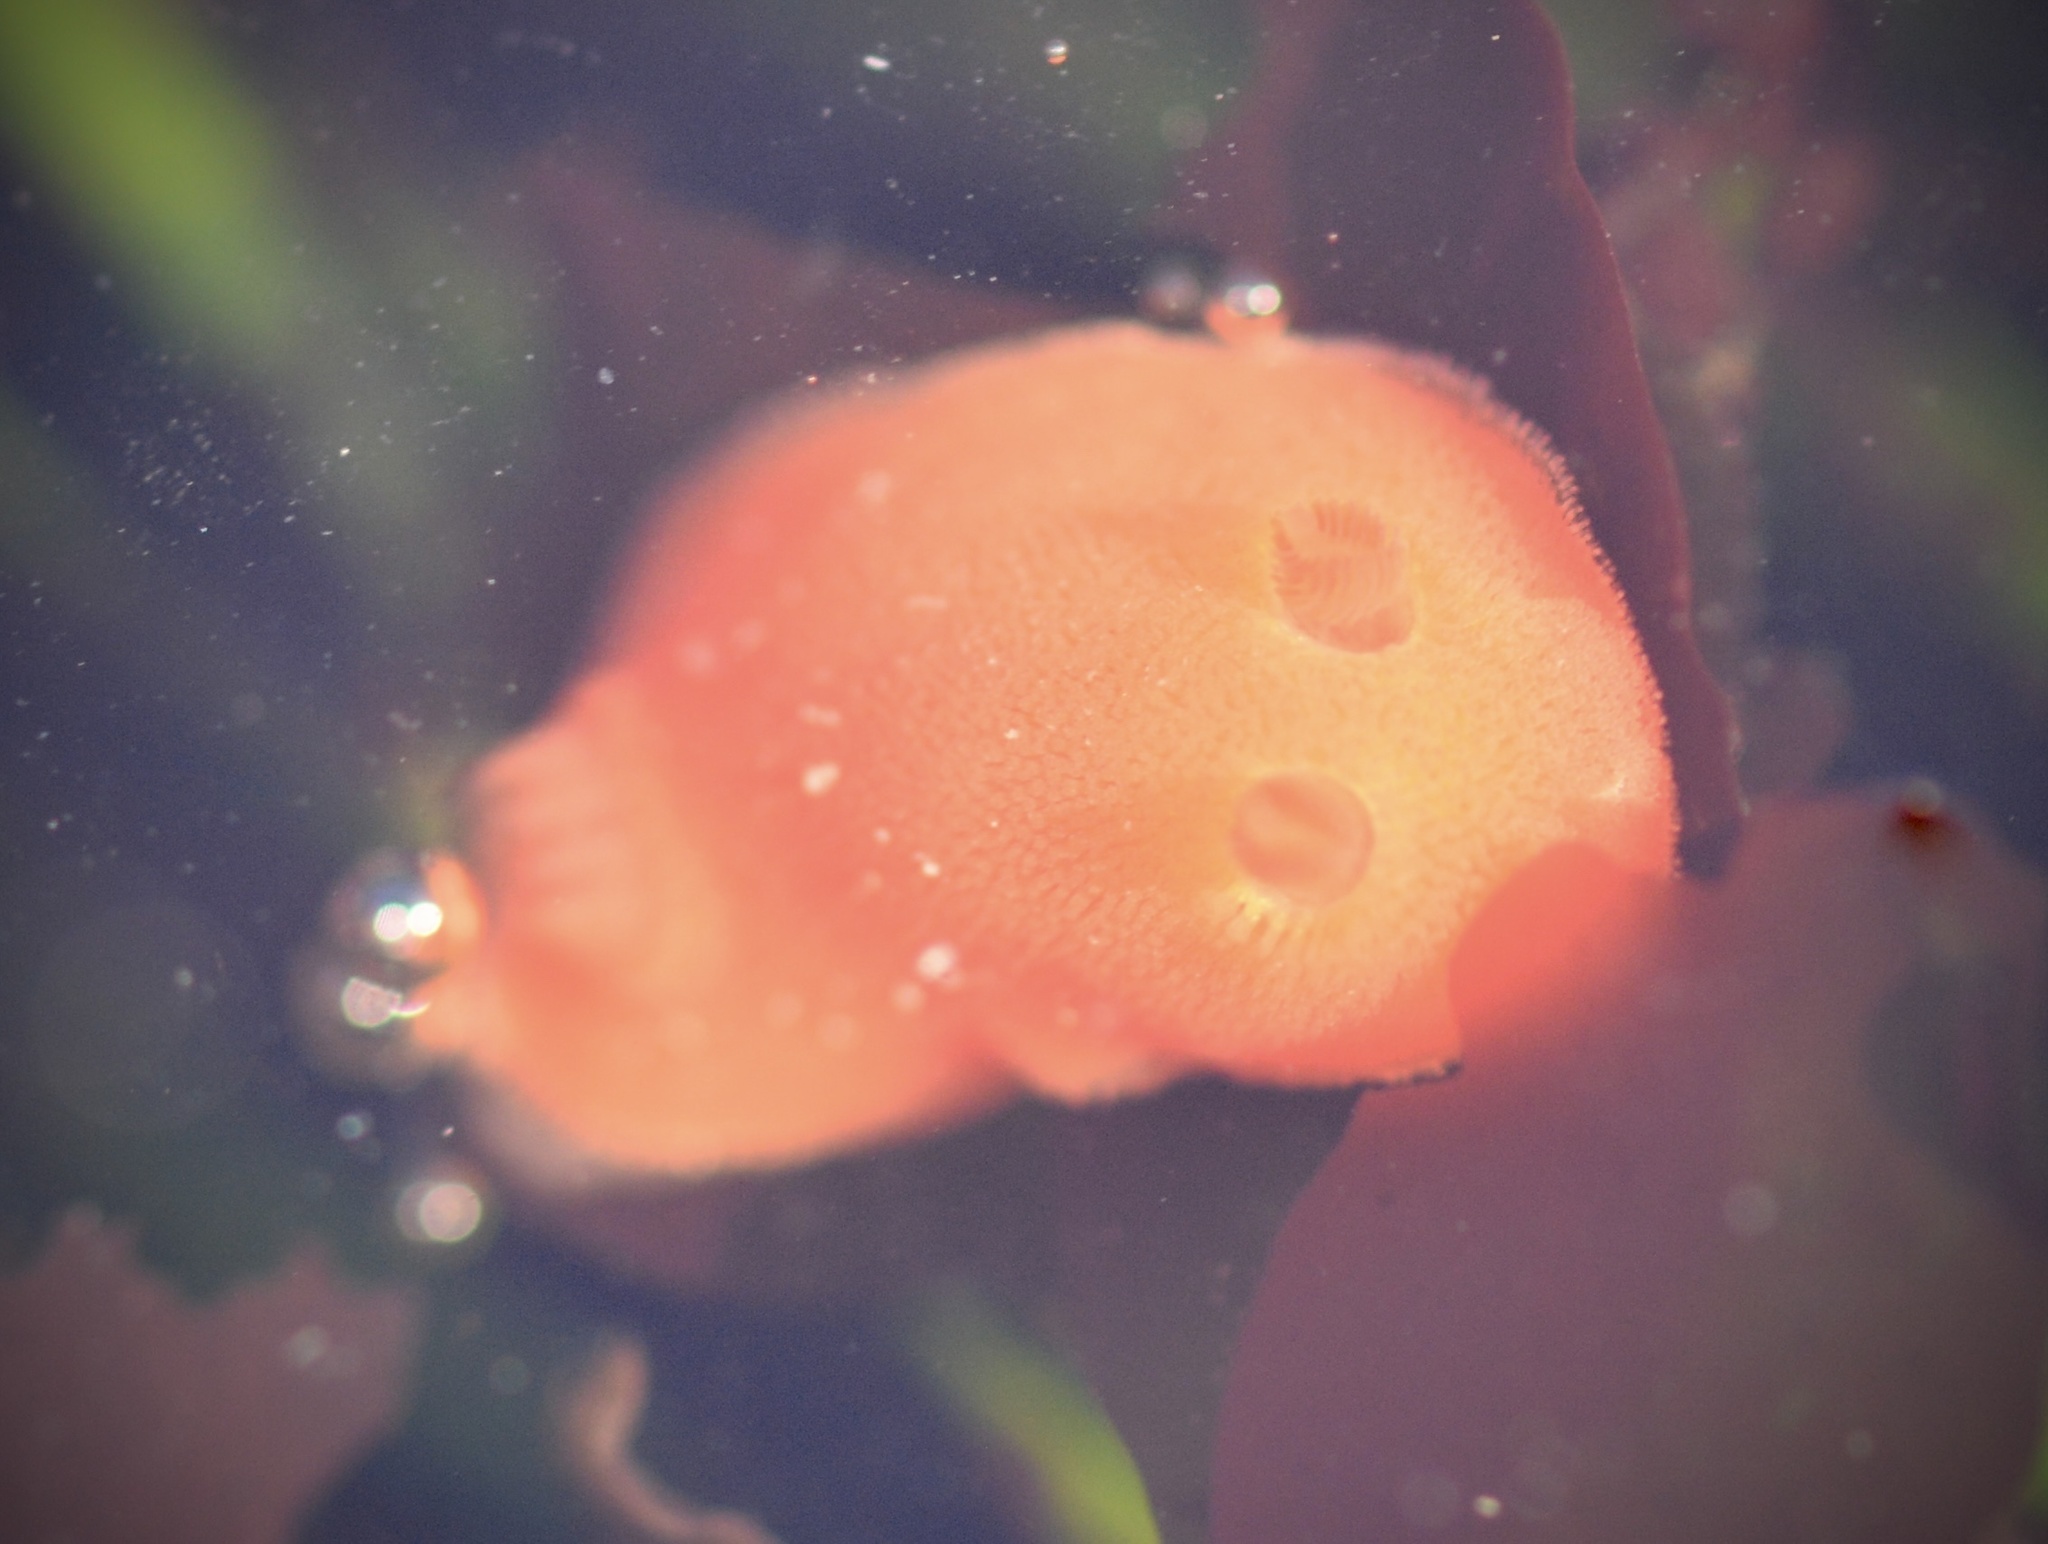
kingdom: Animalia
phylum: Mollusca
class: Gastropoda
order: Nudibranchia
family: Discodorididae
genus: Rostanga
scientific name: Rostanga pulchra
